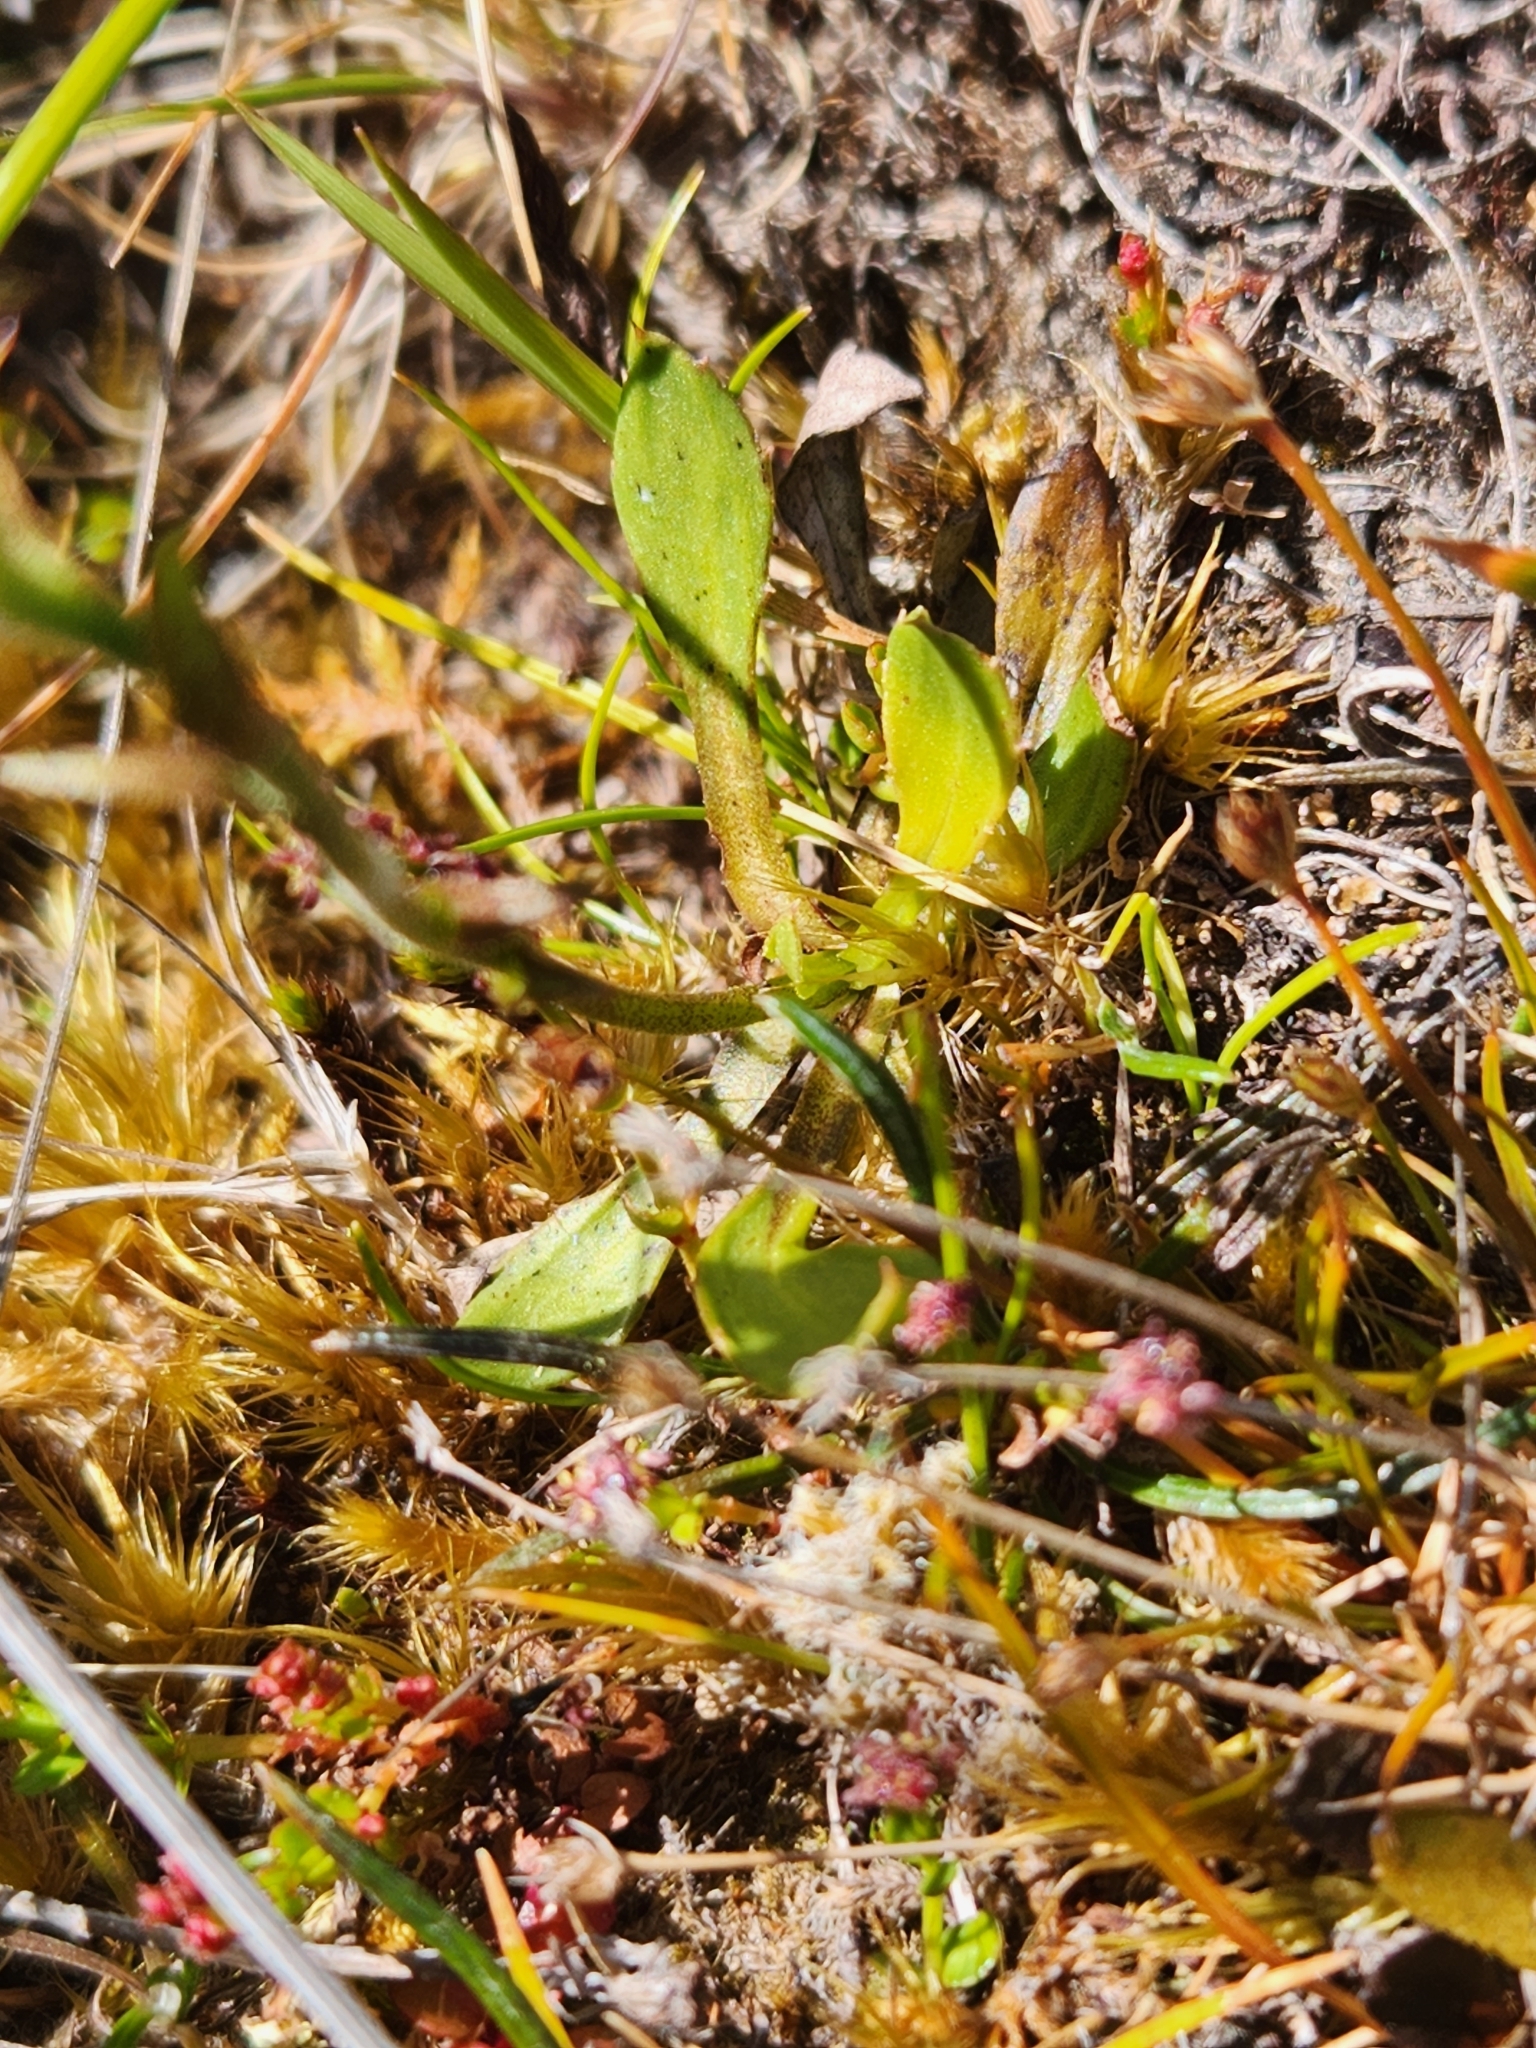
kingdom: Plantae
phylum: Tracheophyta
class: Magnoliopsida
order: Asterales
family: Asteraceae
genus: Celmisia
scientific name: Celmisia glandulosa
